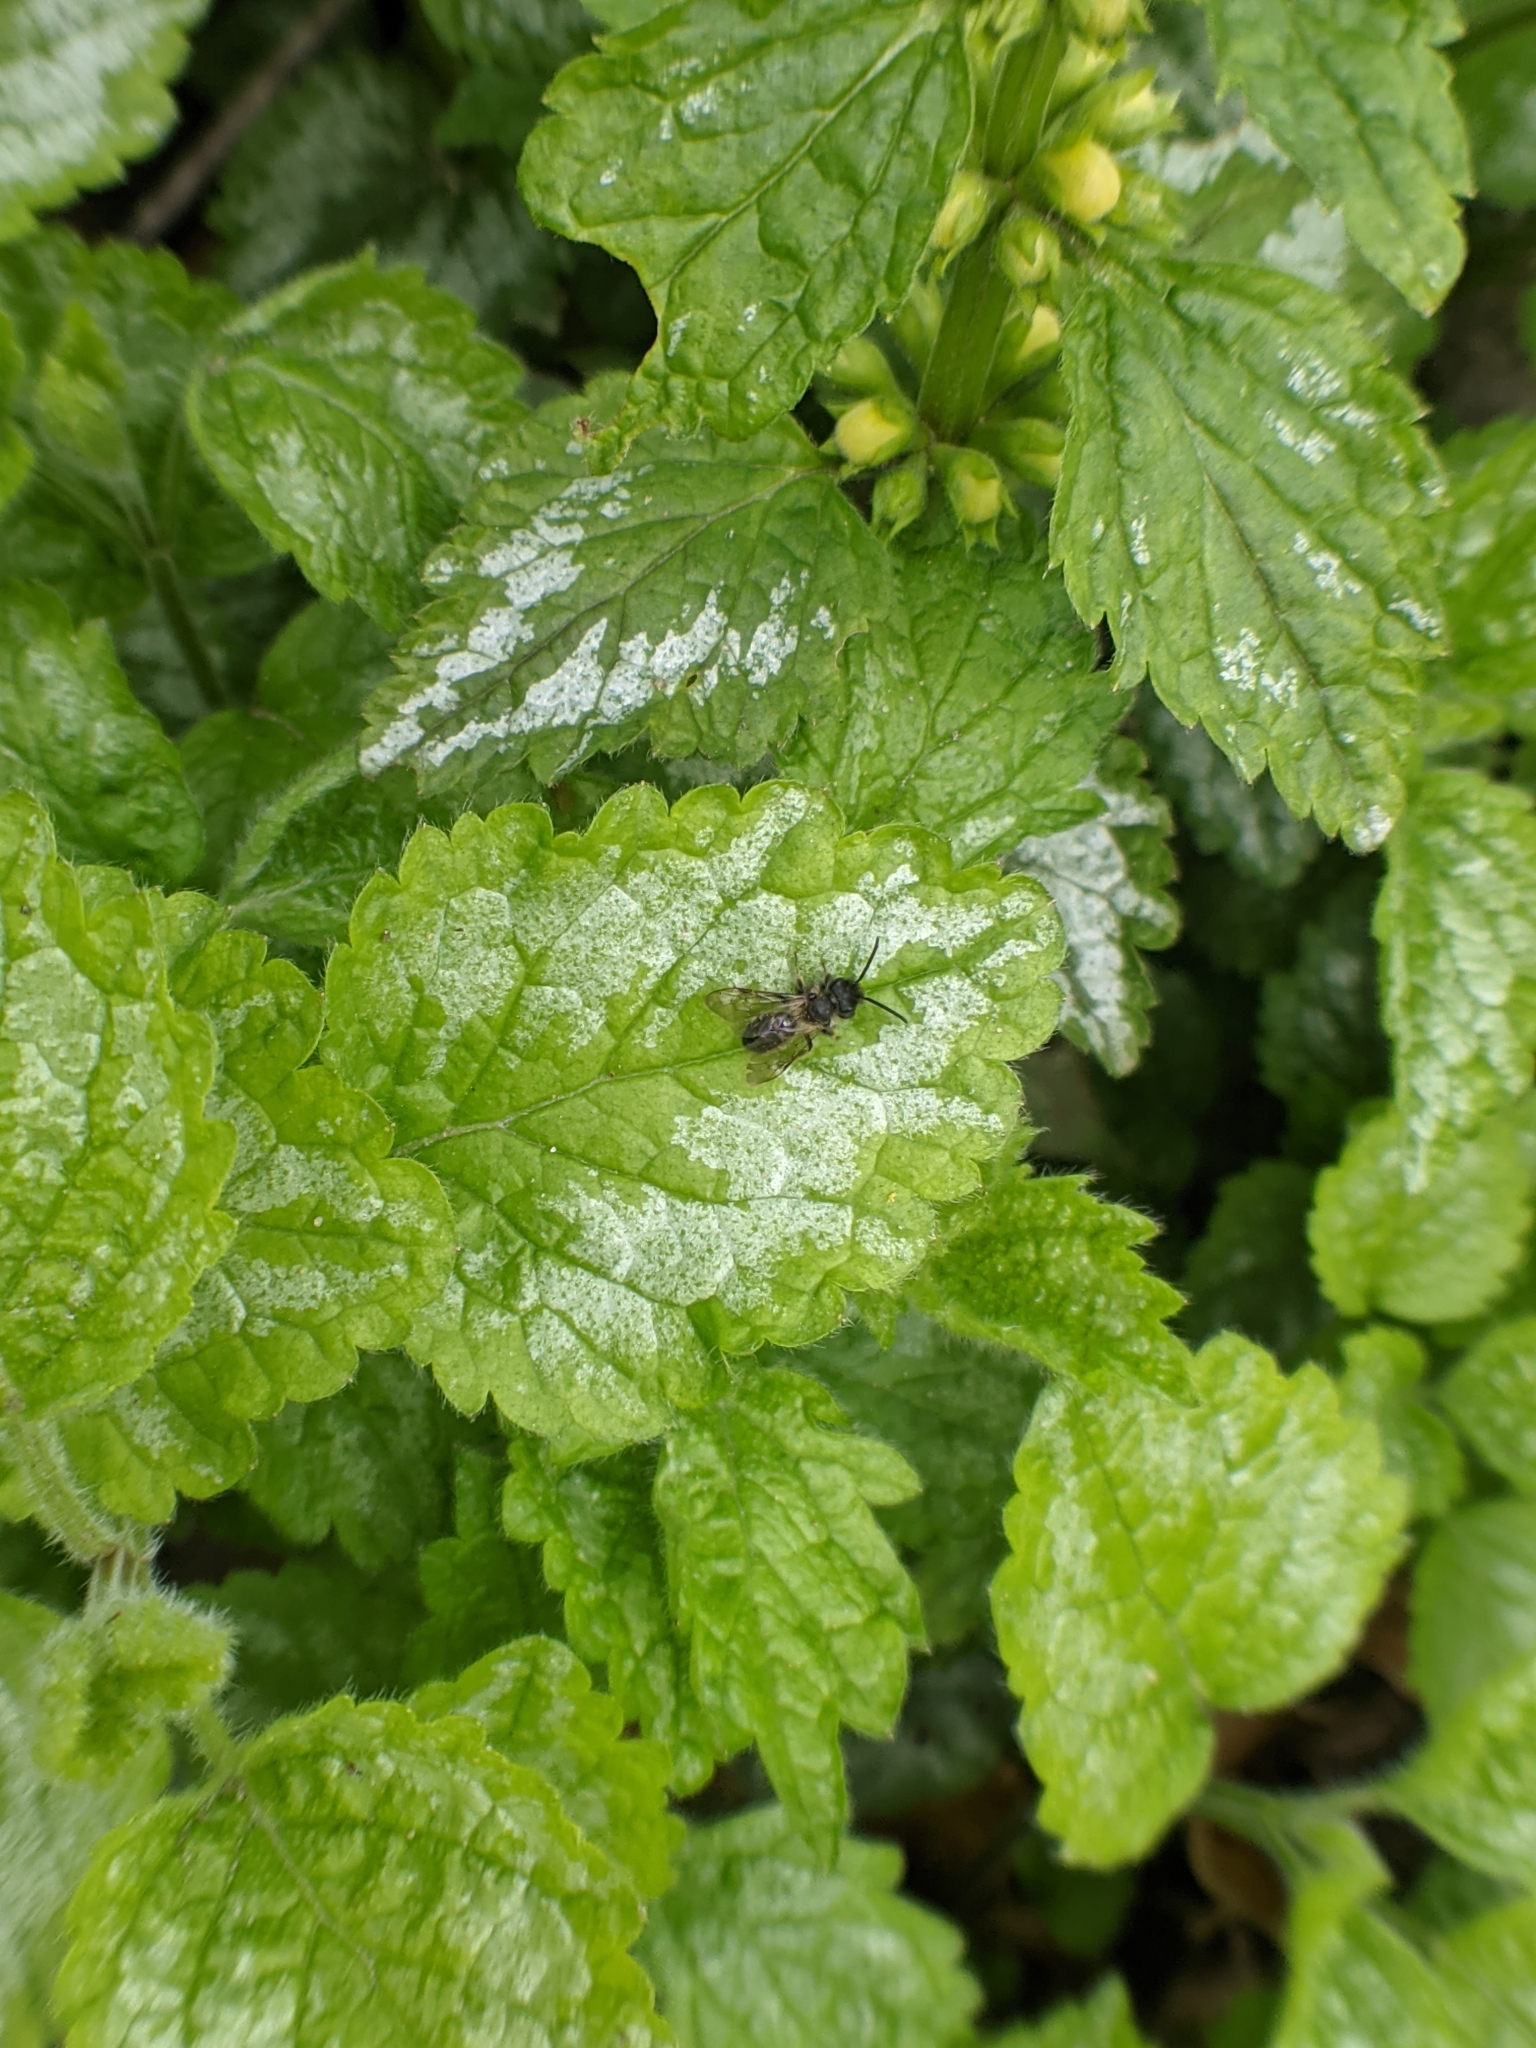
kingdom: Animalia
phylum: Arthropoda
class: Insecta
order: Hymenoptera
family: Andrenidae
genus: Andrena
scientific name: Andrena bicolor
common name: Gwynne's mining bee
